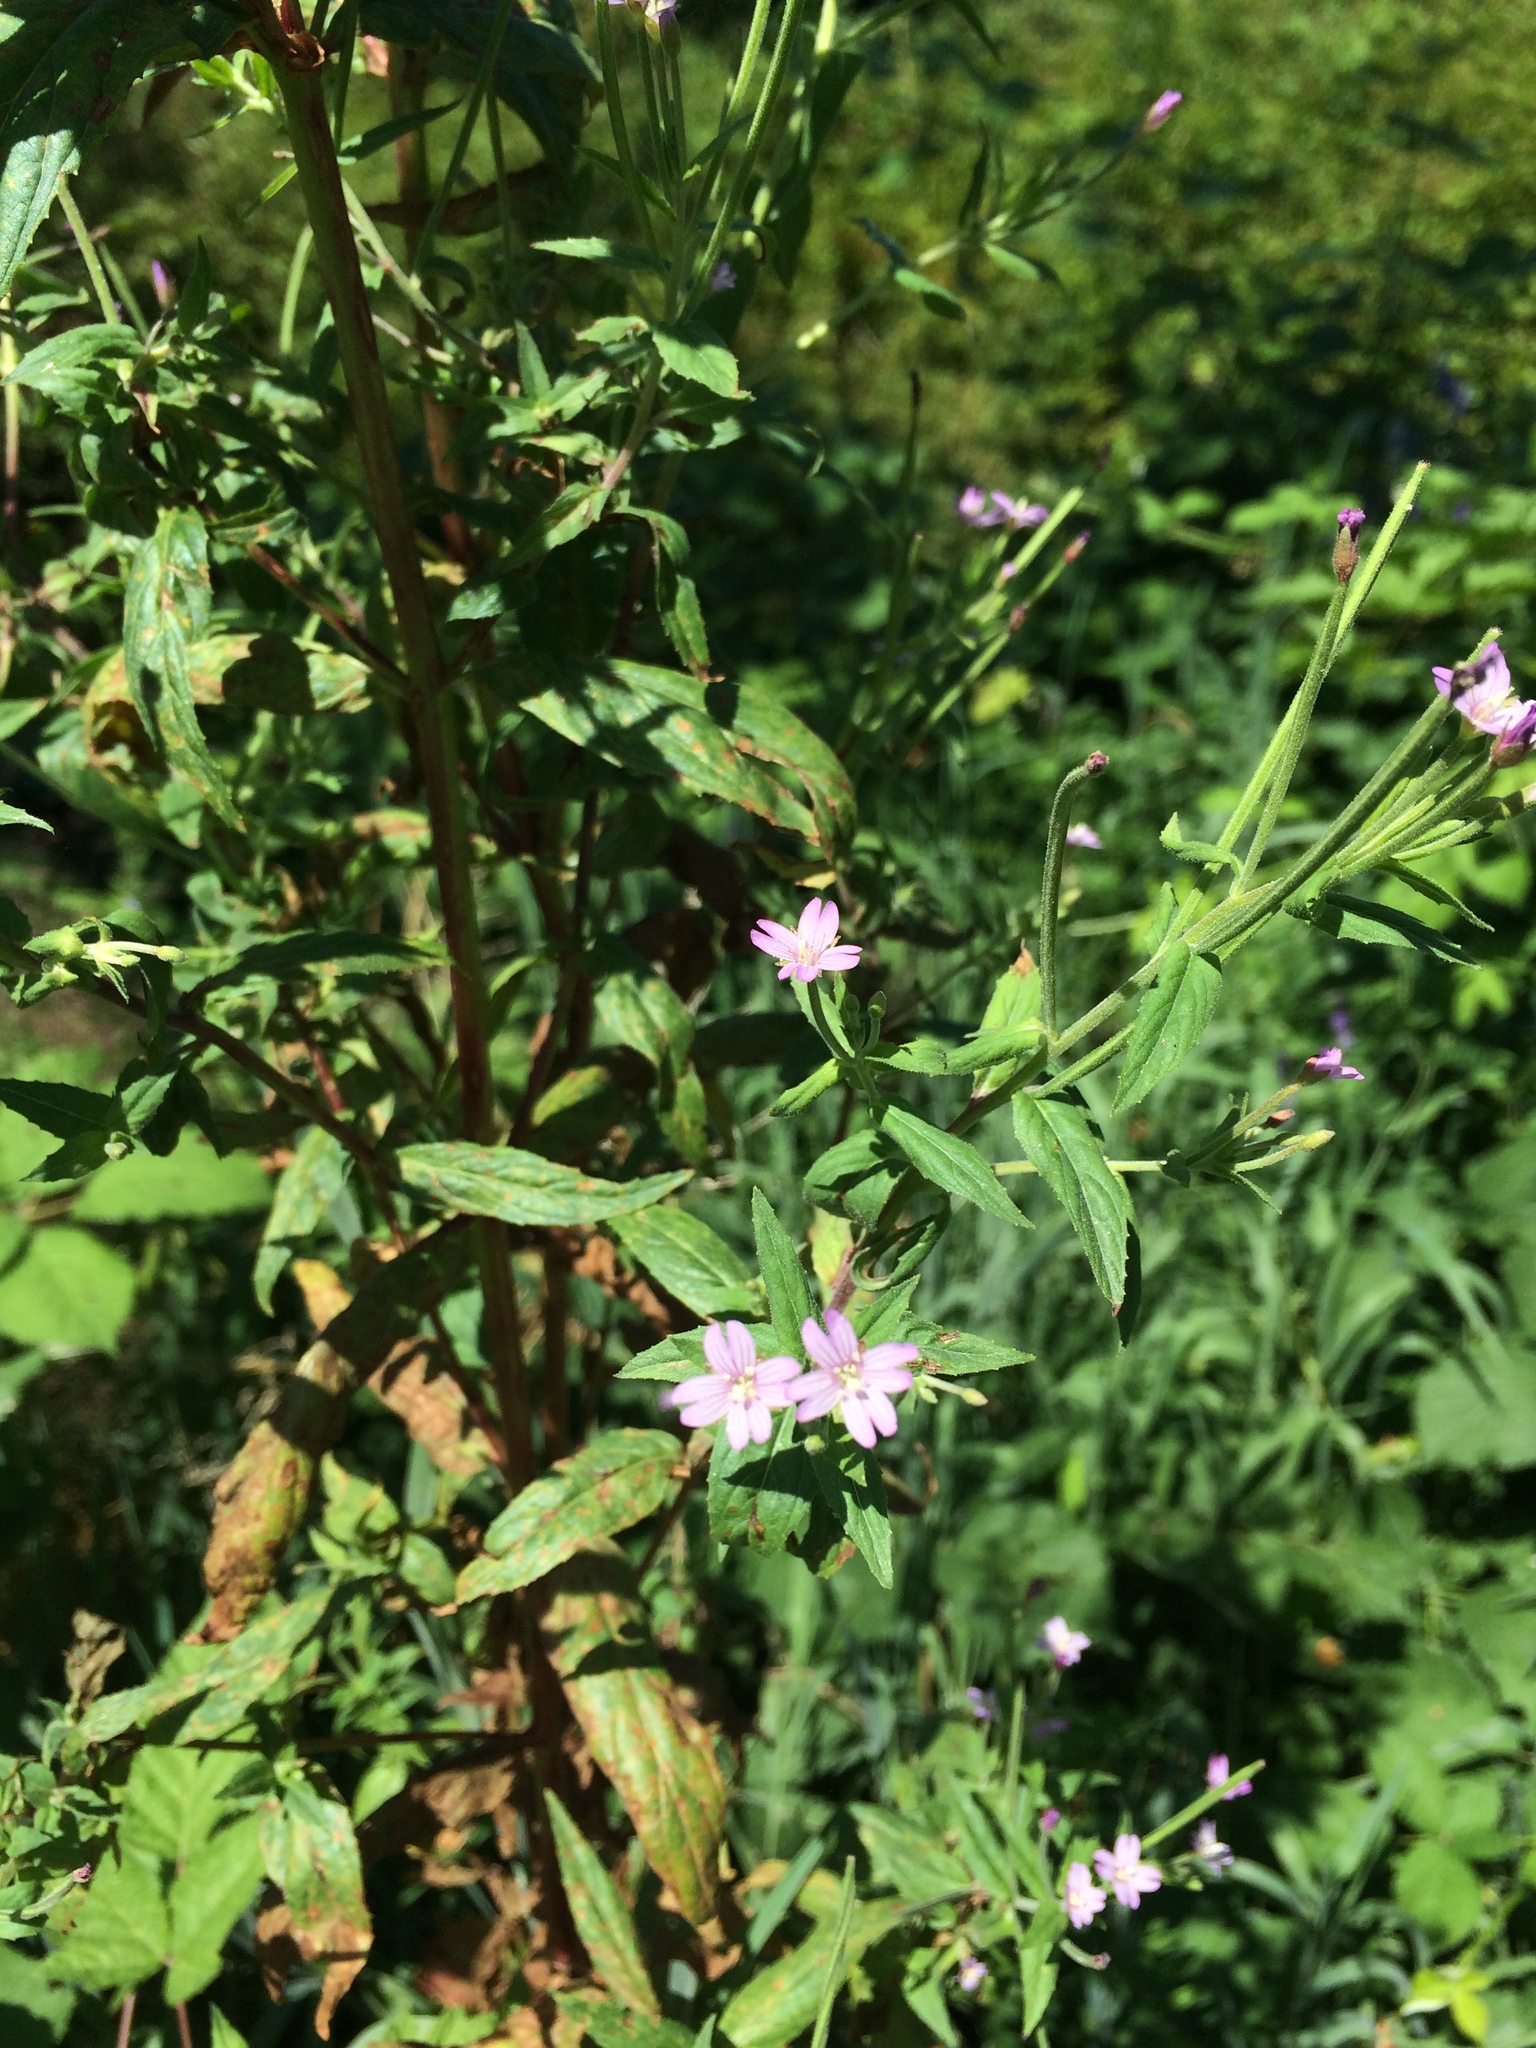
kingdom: Plantae
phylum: Tracheophyta
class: Magnoliopsida
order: Myrtales
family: Onagraceae
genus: Epilobium
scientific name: Epilobium ciliatum
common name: American willowherb
